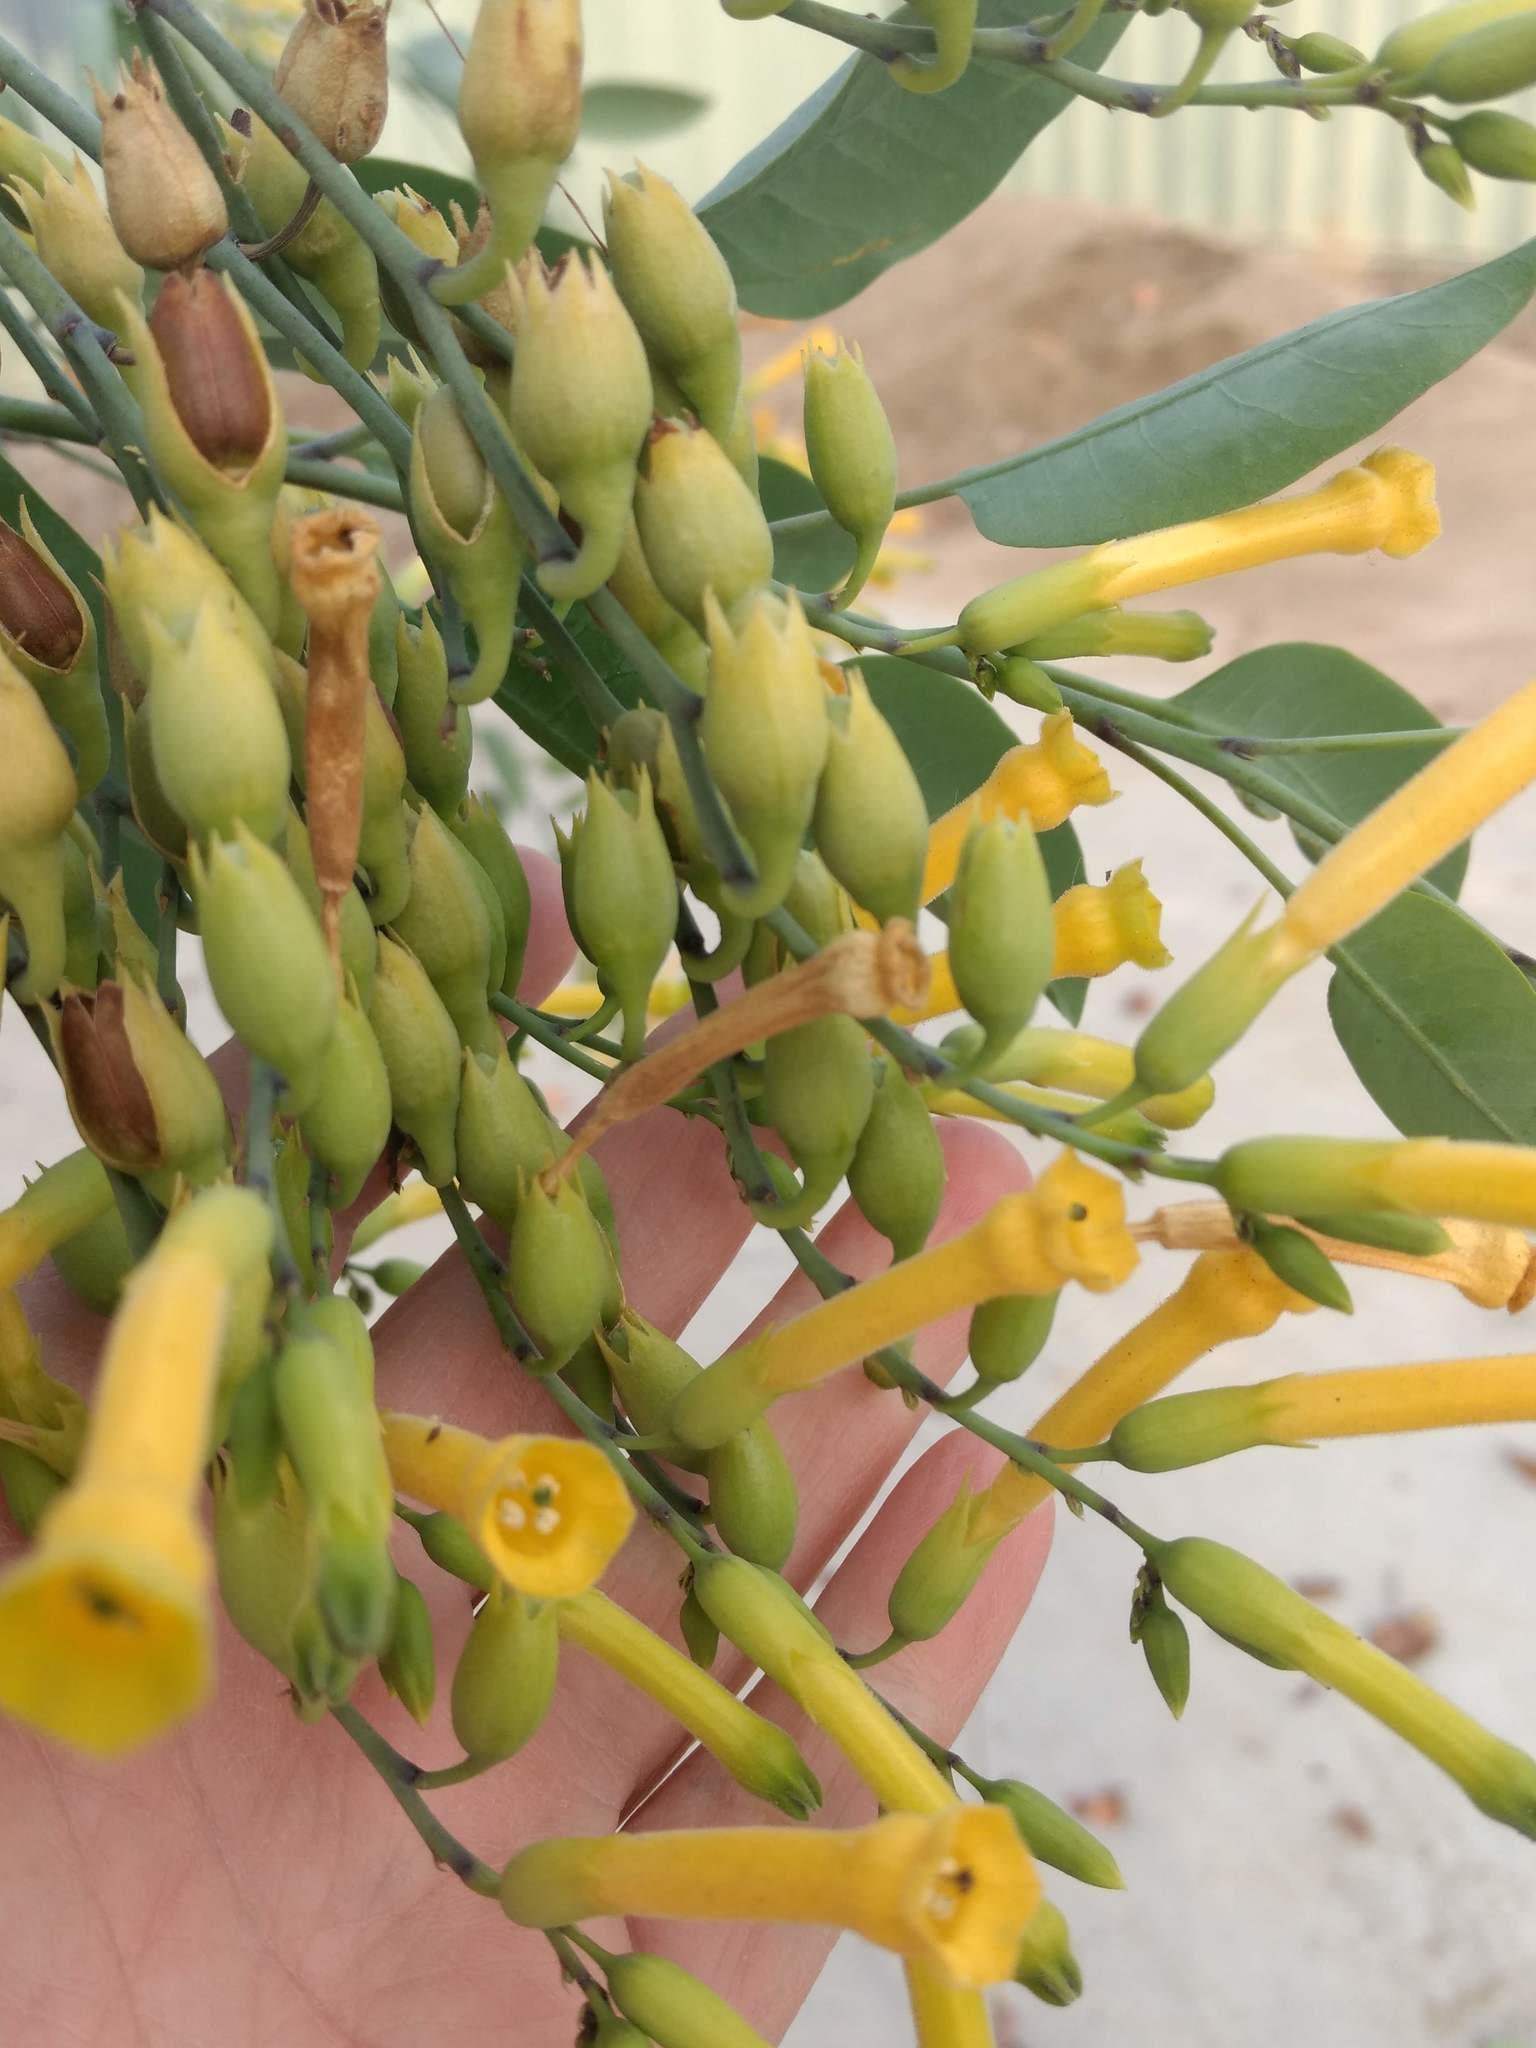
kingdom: Plantae
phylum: Tracheophyta
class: Magnoliopsida
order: Solanales
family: Solanaceae
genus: Nicotiana
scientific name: Nicotiana glauca
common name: Tree tobacco
